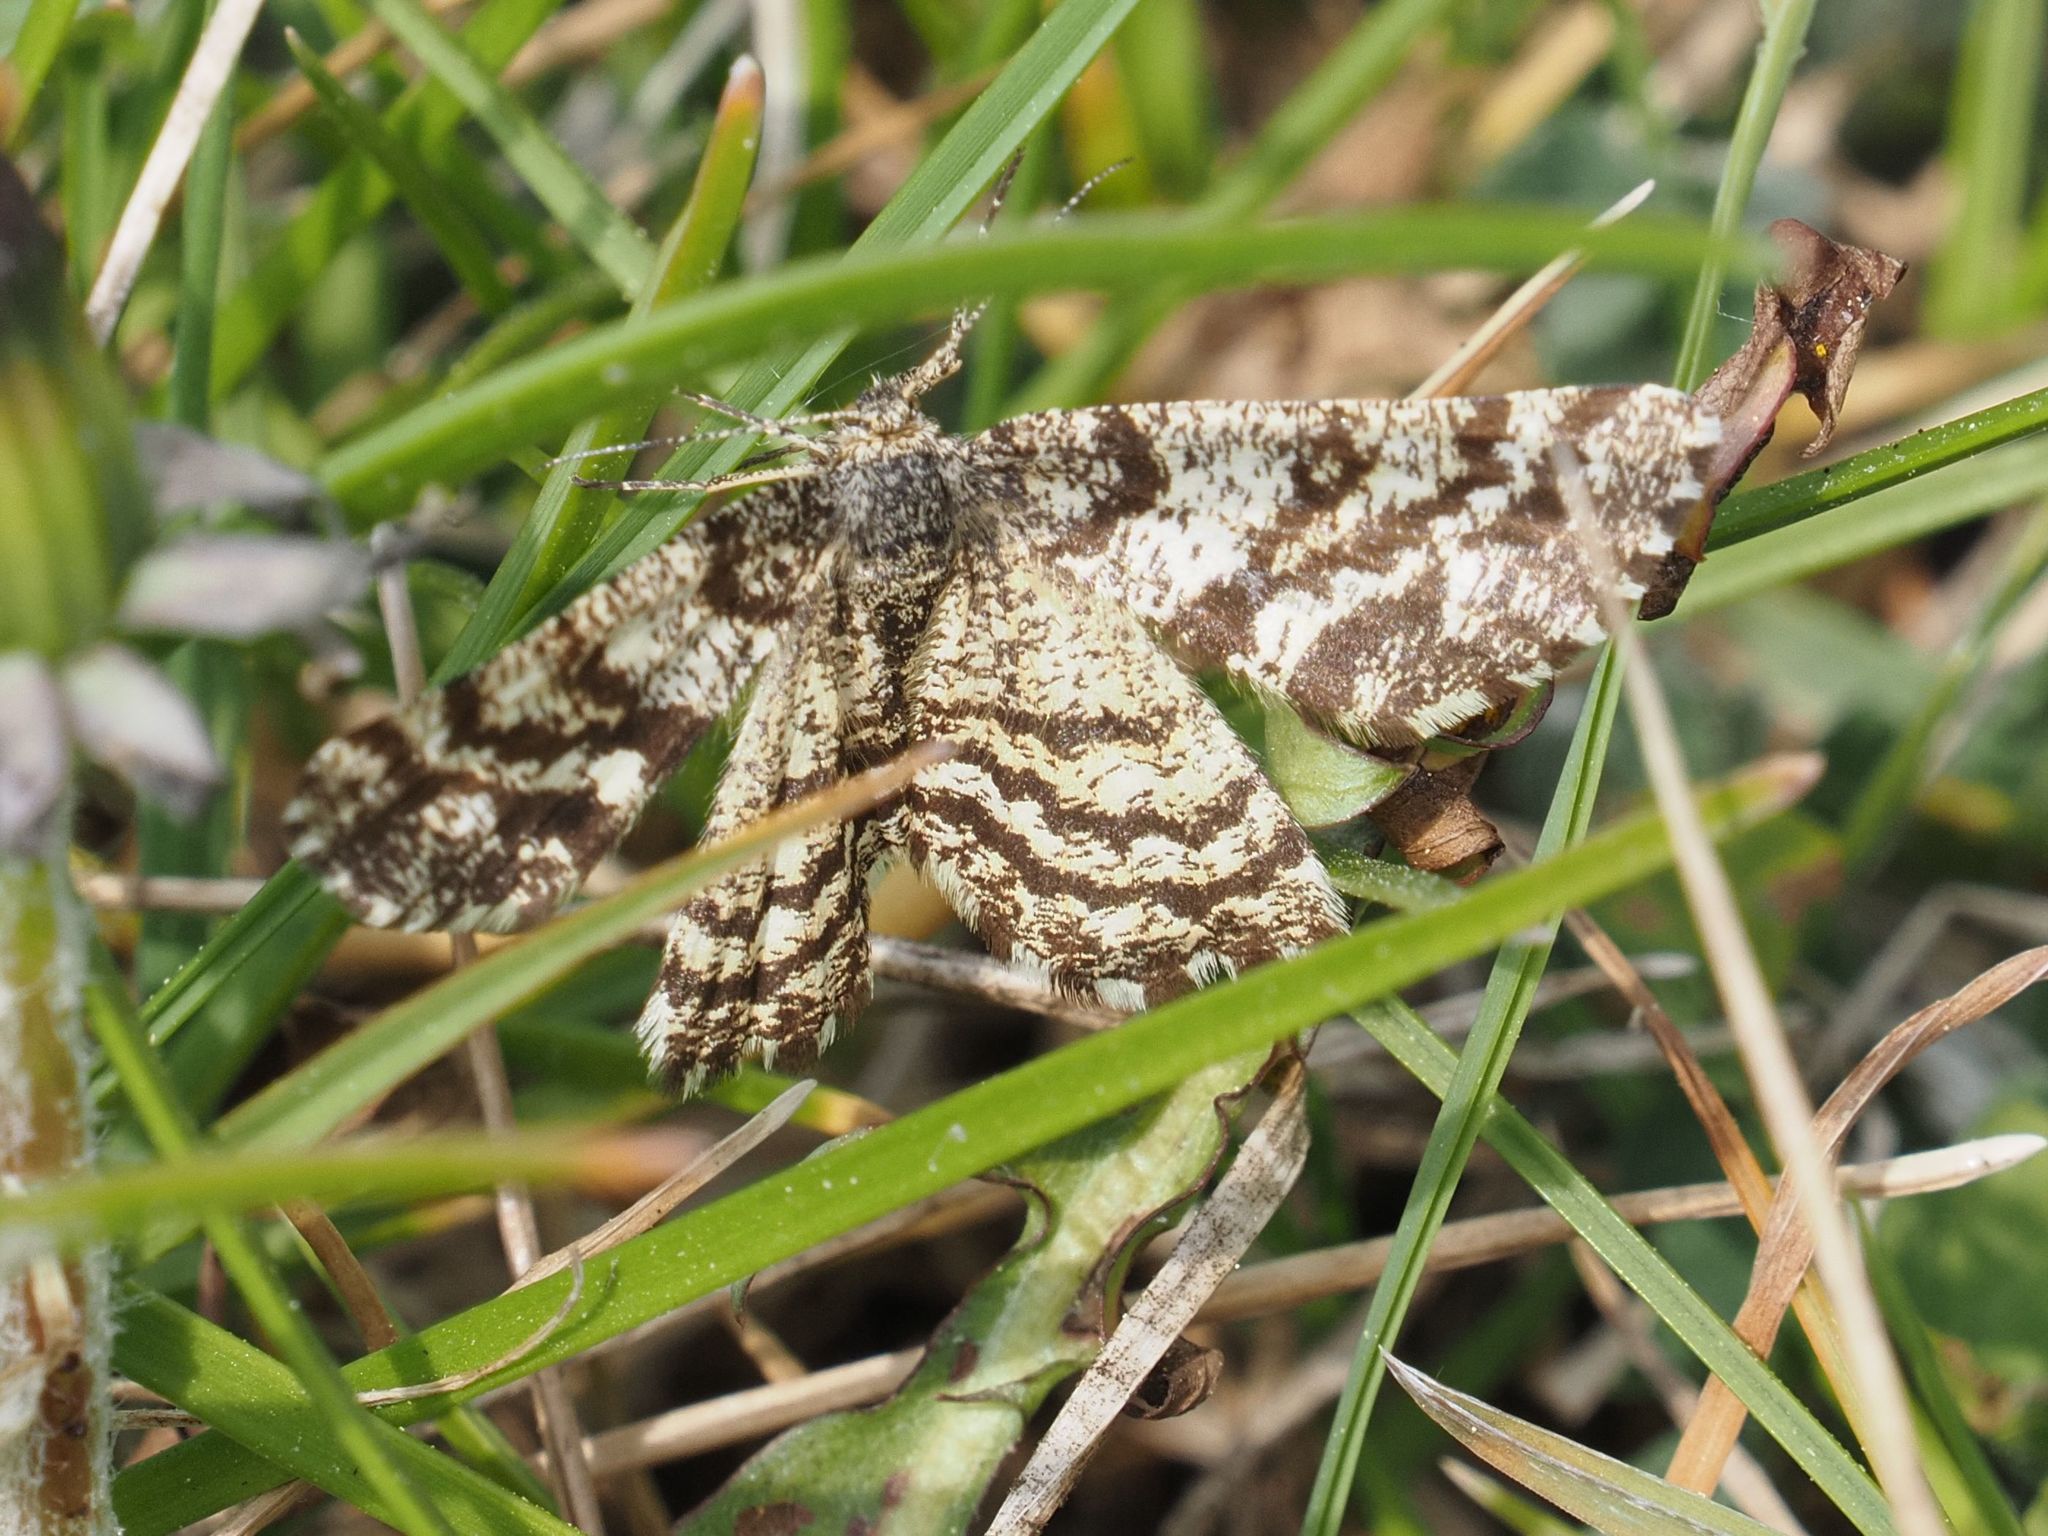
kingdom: Animalia
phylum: Arthropoda
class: Insecta
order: Lepidoptera
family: Geometridae
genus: Ematurga
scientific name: Ematurga atomaria
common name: Common heath
